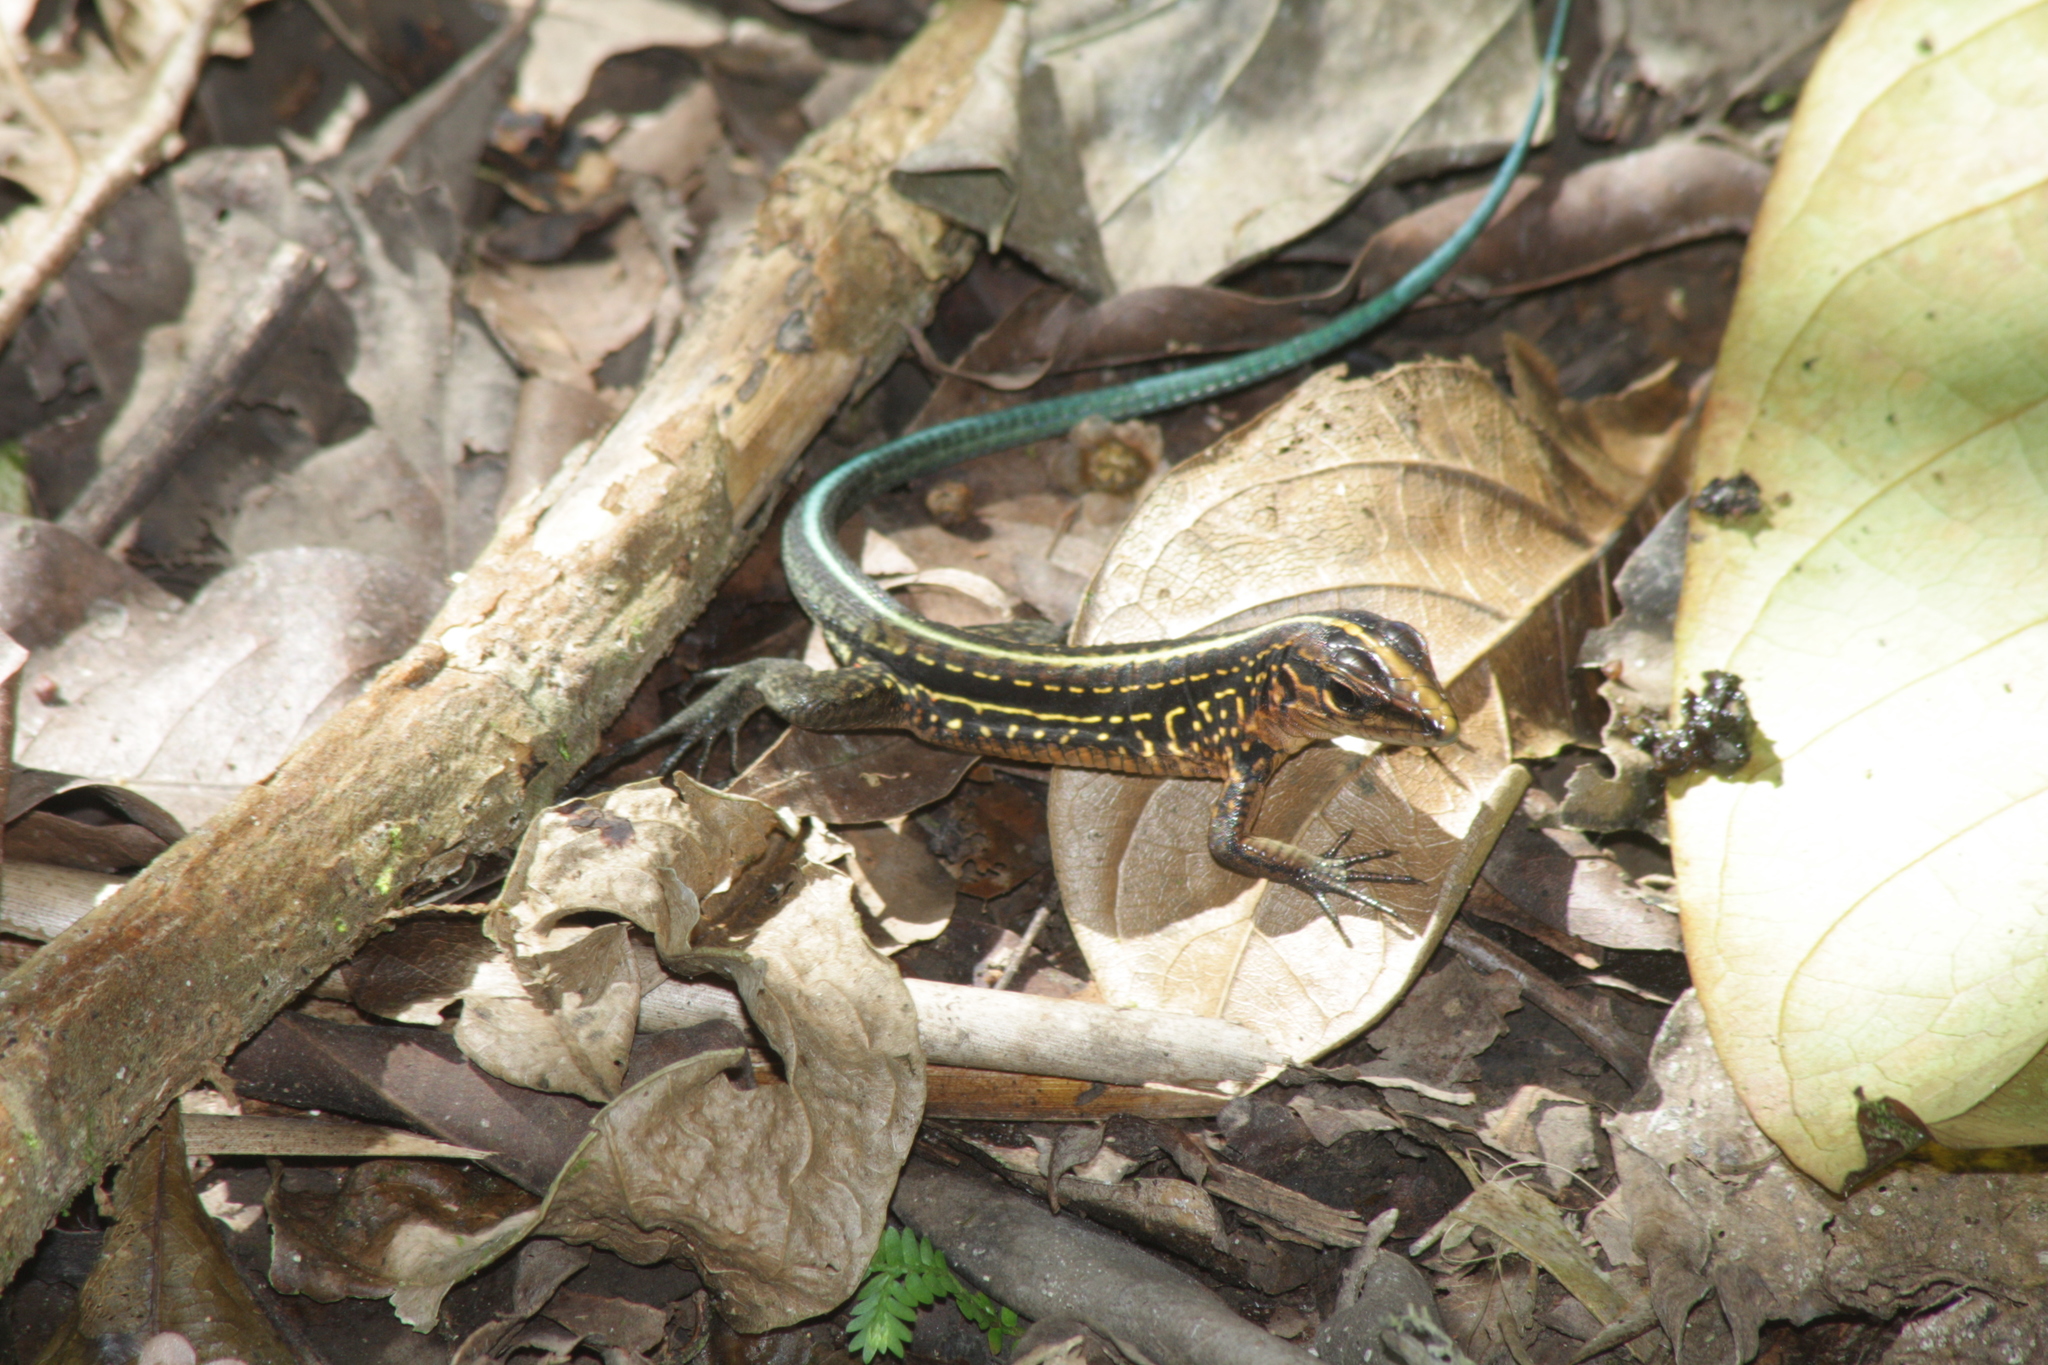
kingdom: Animalia
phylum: Chordata
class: Squamata
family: Teiidae
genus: Holcosus
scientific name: Holcosus festivus
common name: Middle american ameiva
